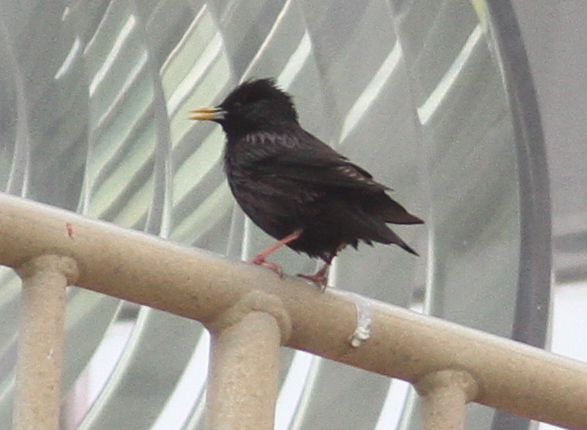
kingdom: Animalia
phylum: Chordata
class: Aves
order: Passeriformes
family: Sturnidae
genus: Sturnus
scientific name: Sturnus unicolor
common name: Spotless starling
